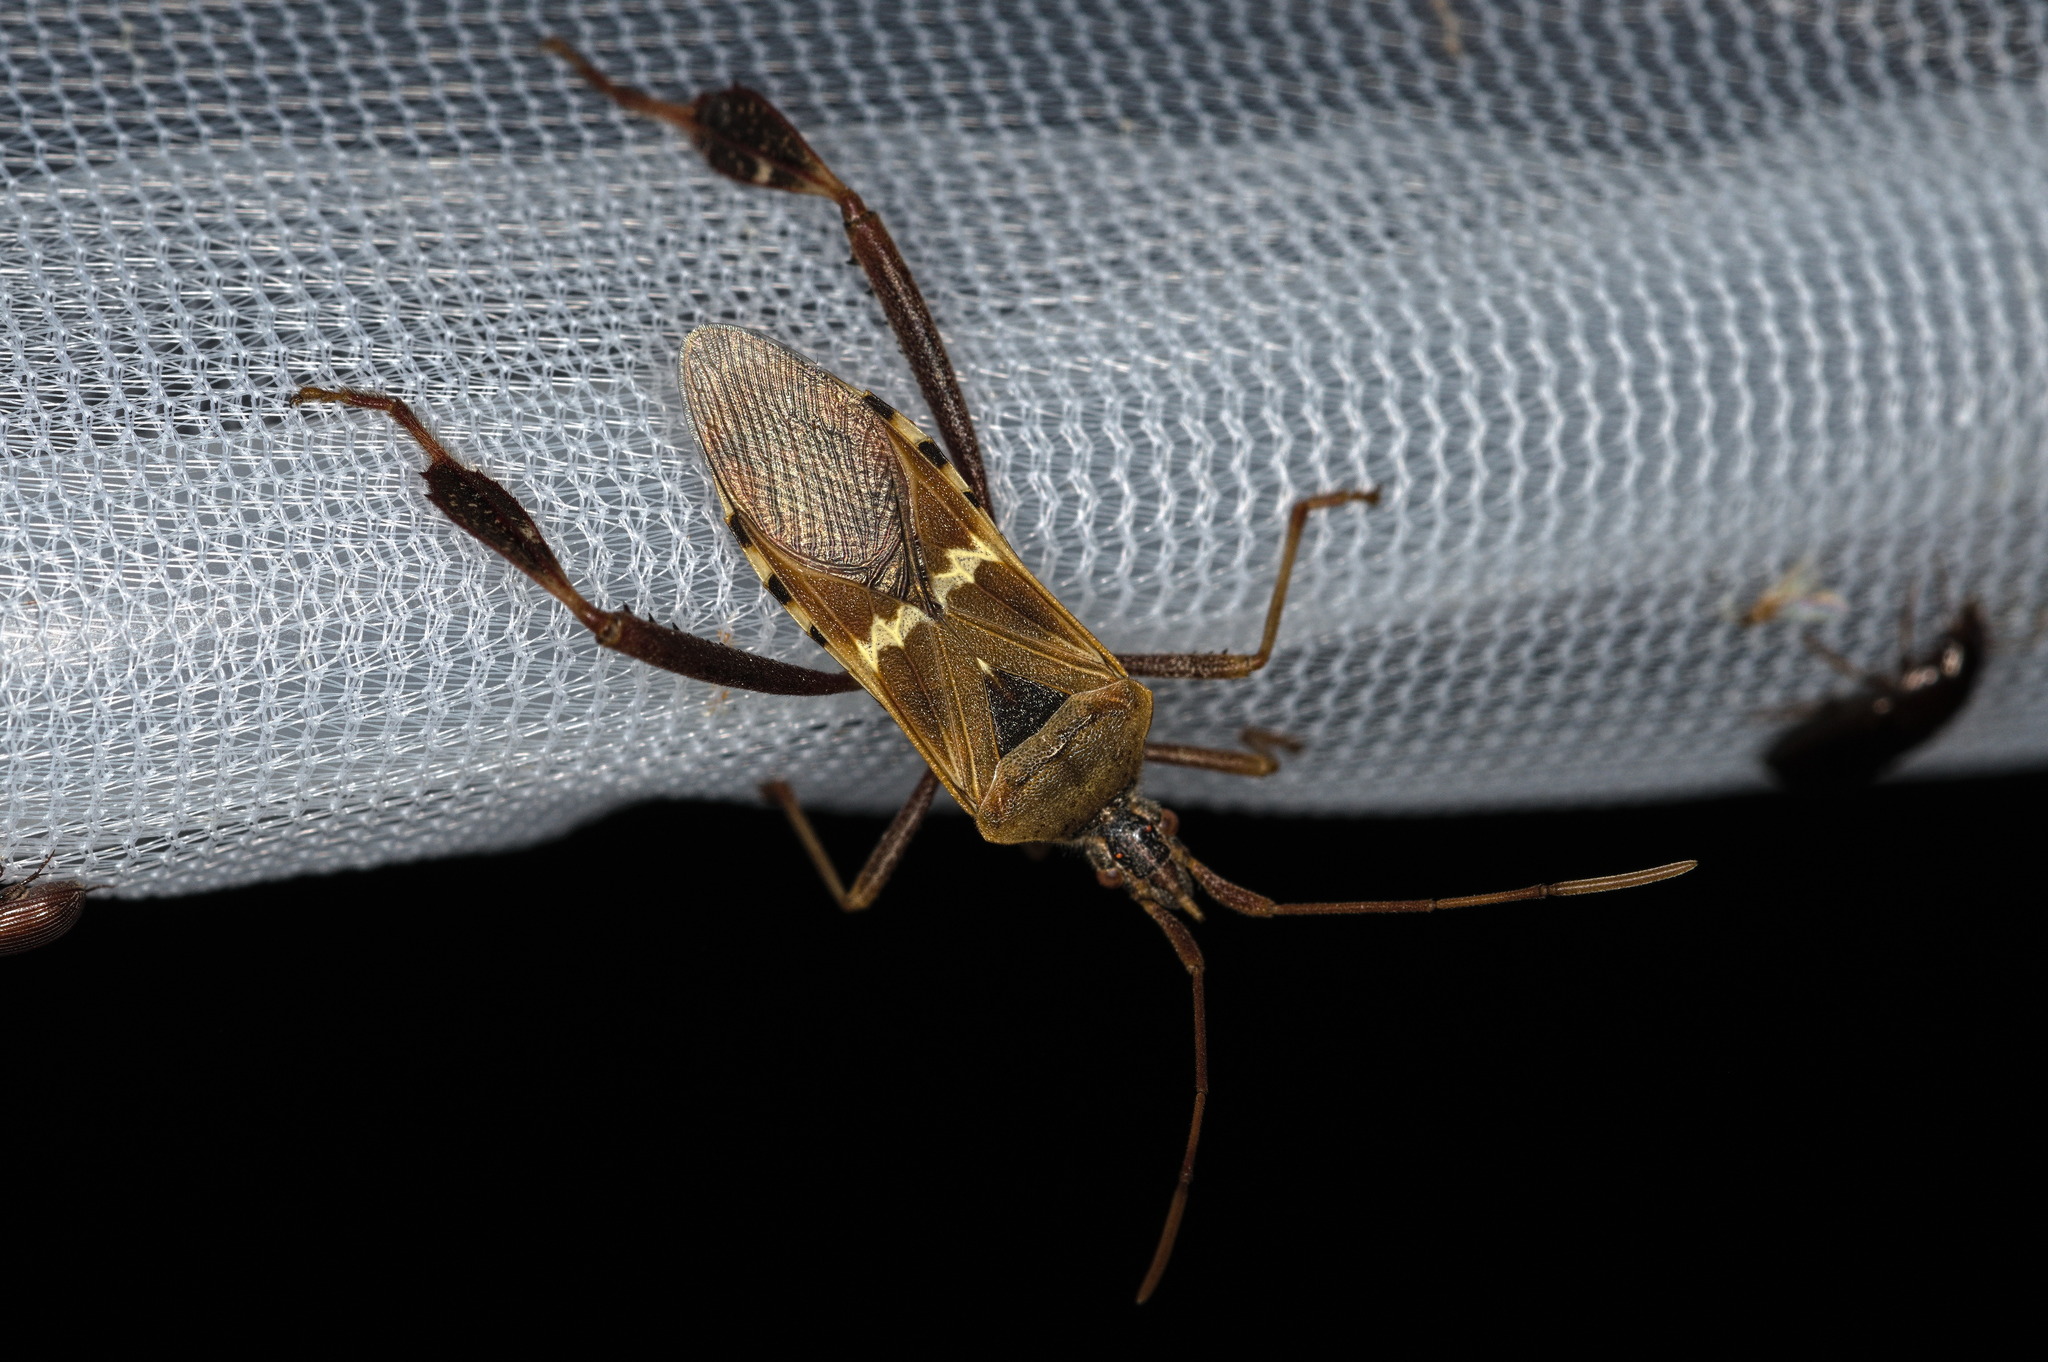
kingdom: Animalia
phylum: Arthropoda
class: Insecta
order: Hemiptera
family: Coreidae
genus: Leptoglossus
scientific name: Leptoglossus clypealis
